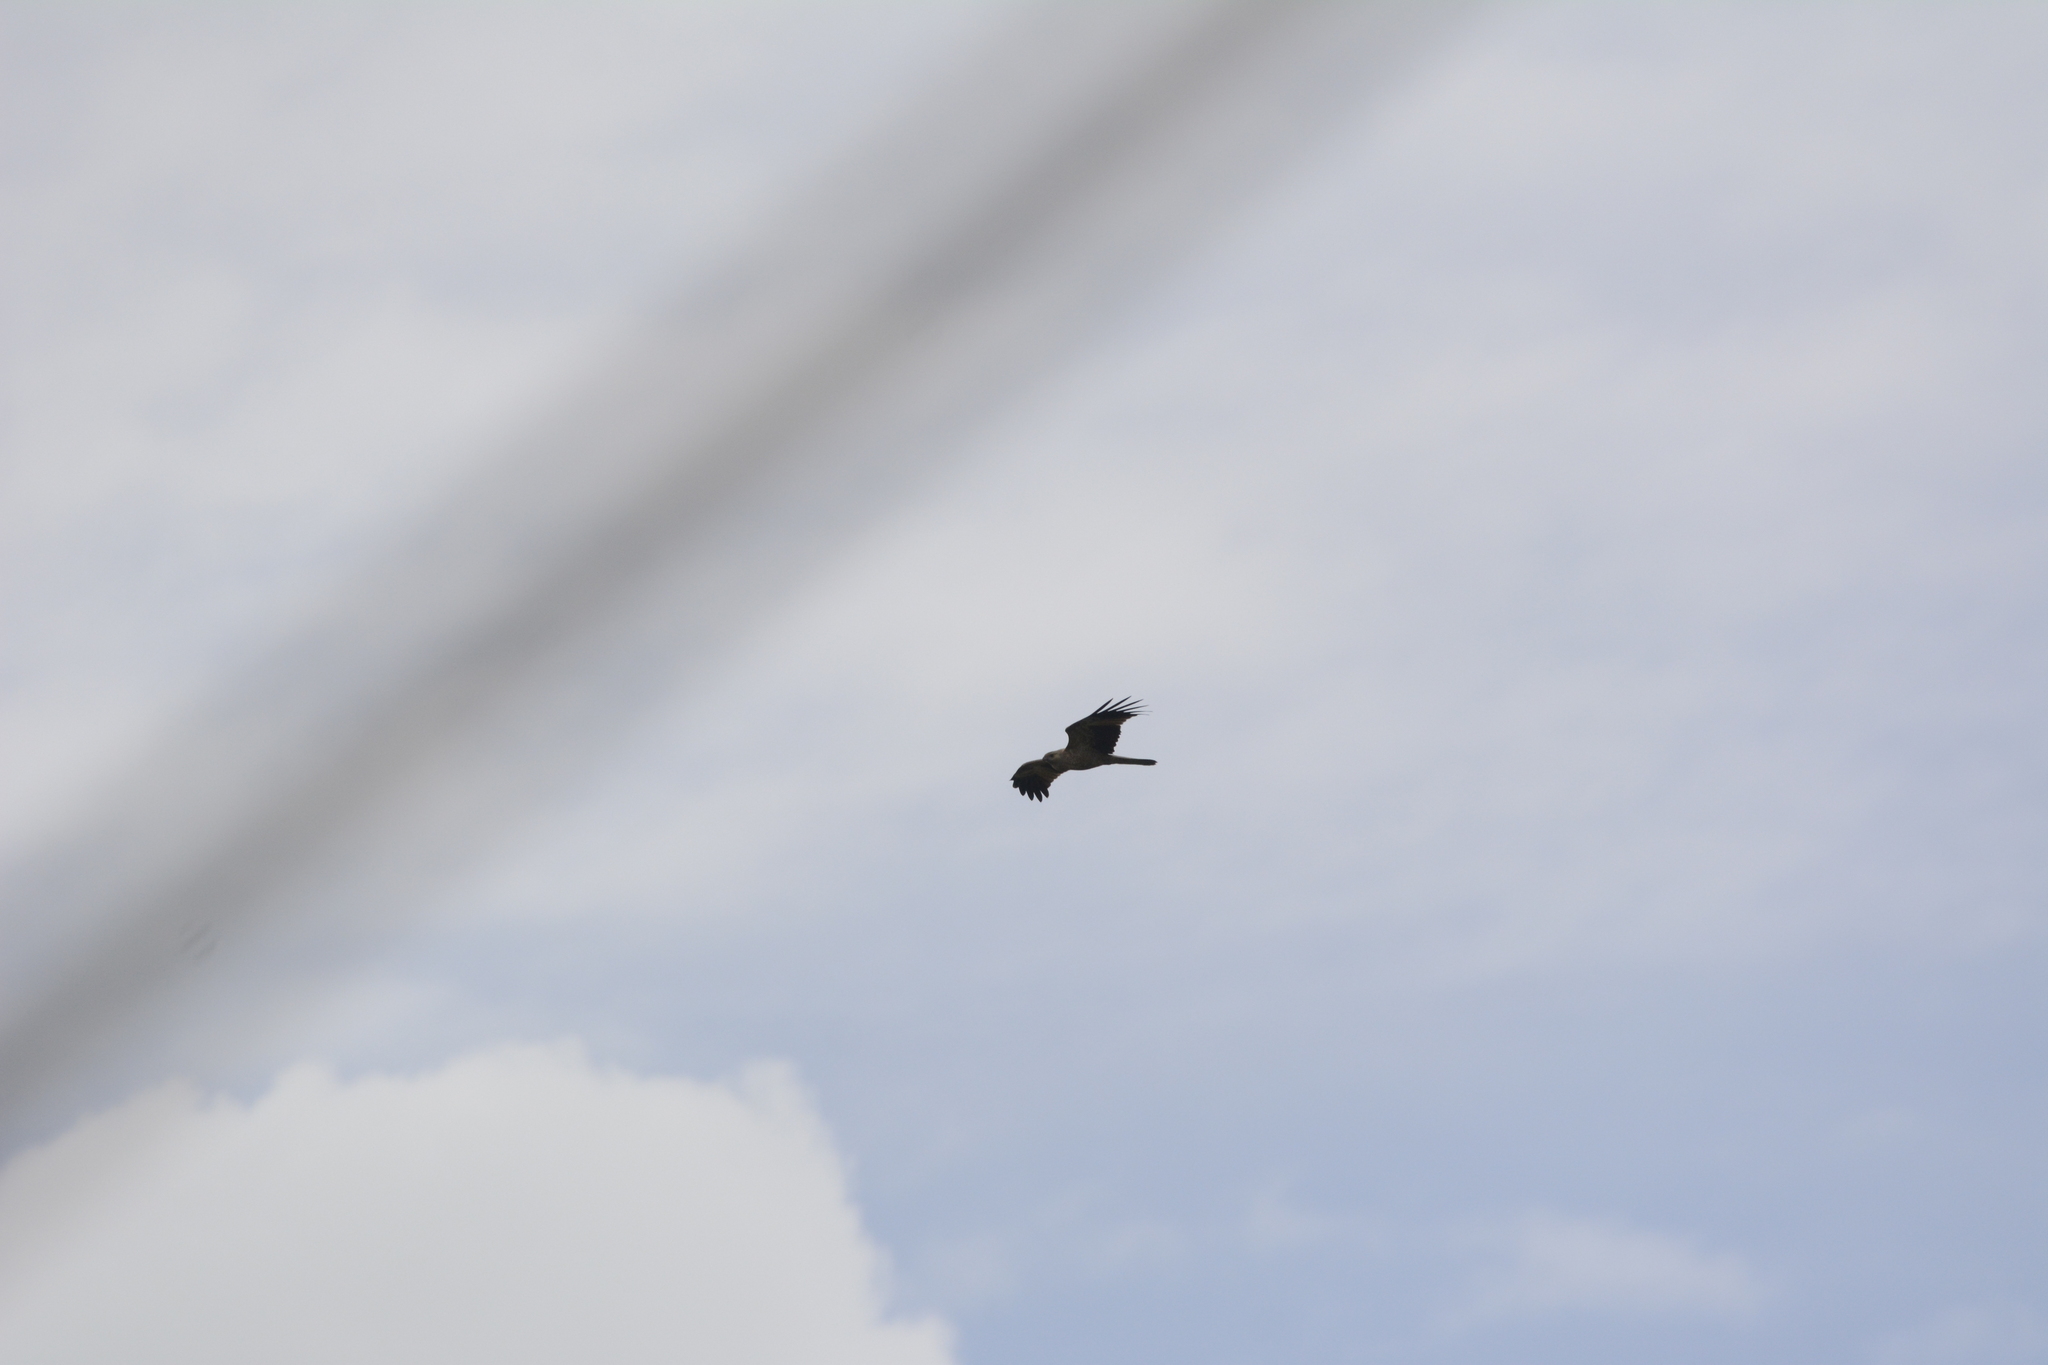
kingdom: Animalia
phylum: Chordata
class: Aves
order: Accipitriformes
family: Accipitridae
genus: Haliastur
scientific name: Haliastur sphenurus
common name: Whistling kite
